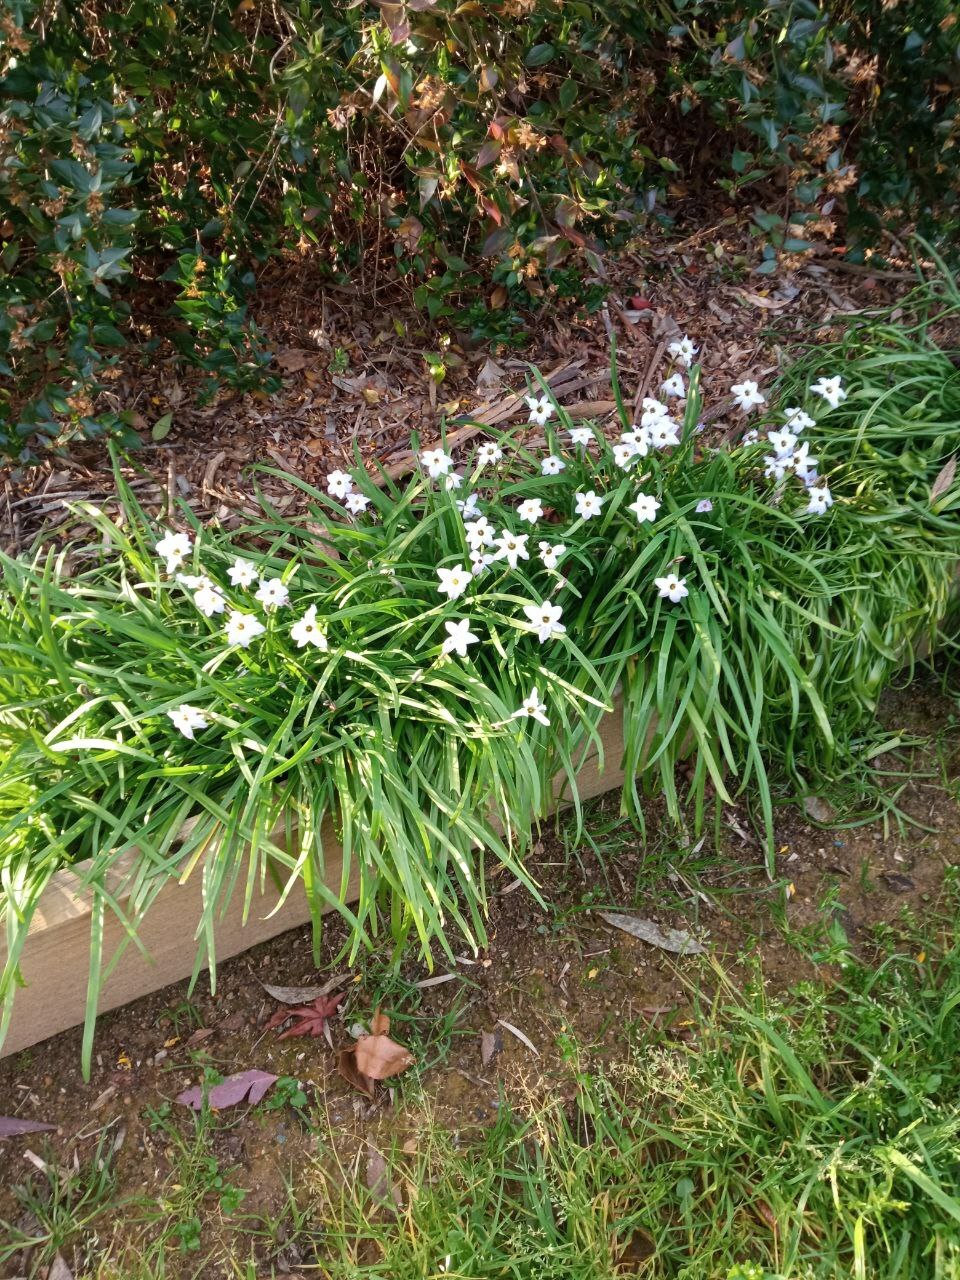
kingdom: Plantae
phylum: Tracheophyta
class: Liliopsida
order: Asparagales
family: Amaryllidaceae
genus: Ipheion
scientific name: Ipheion uniflorum
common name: Spring starflower
